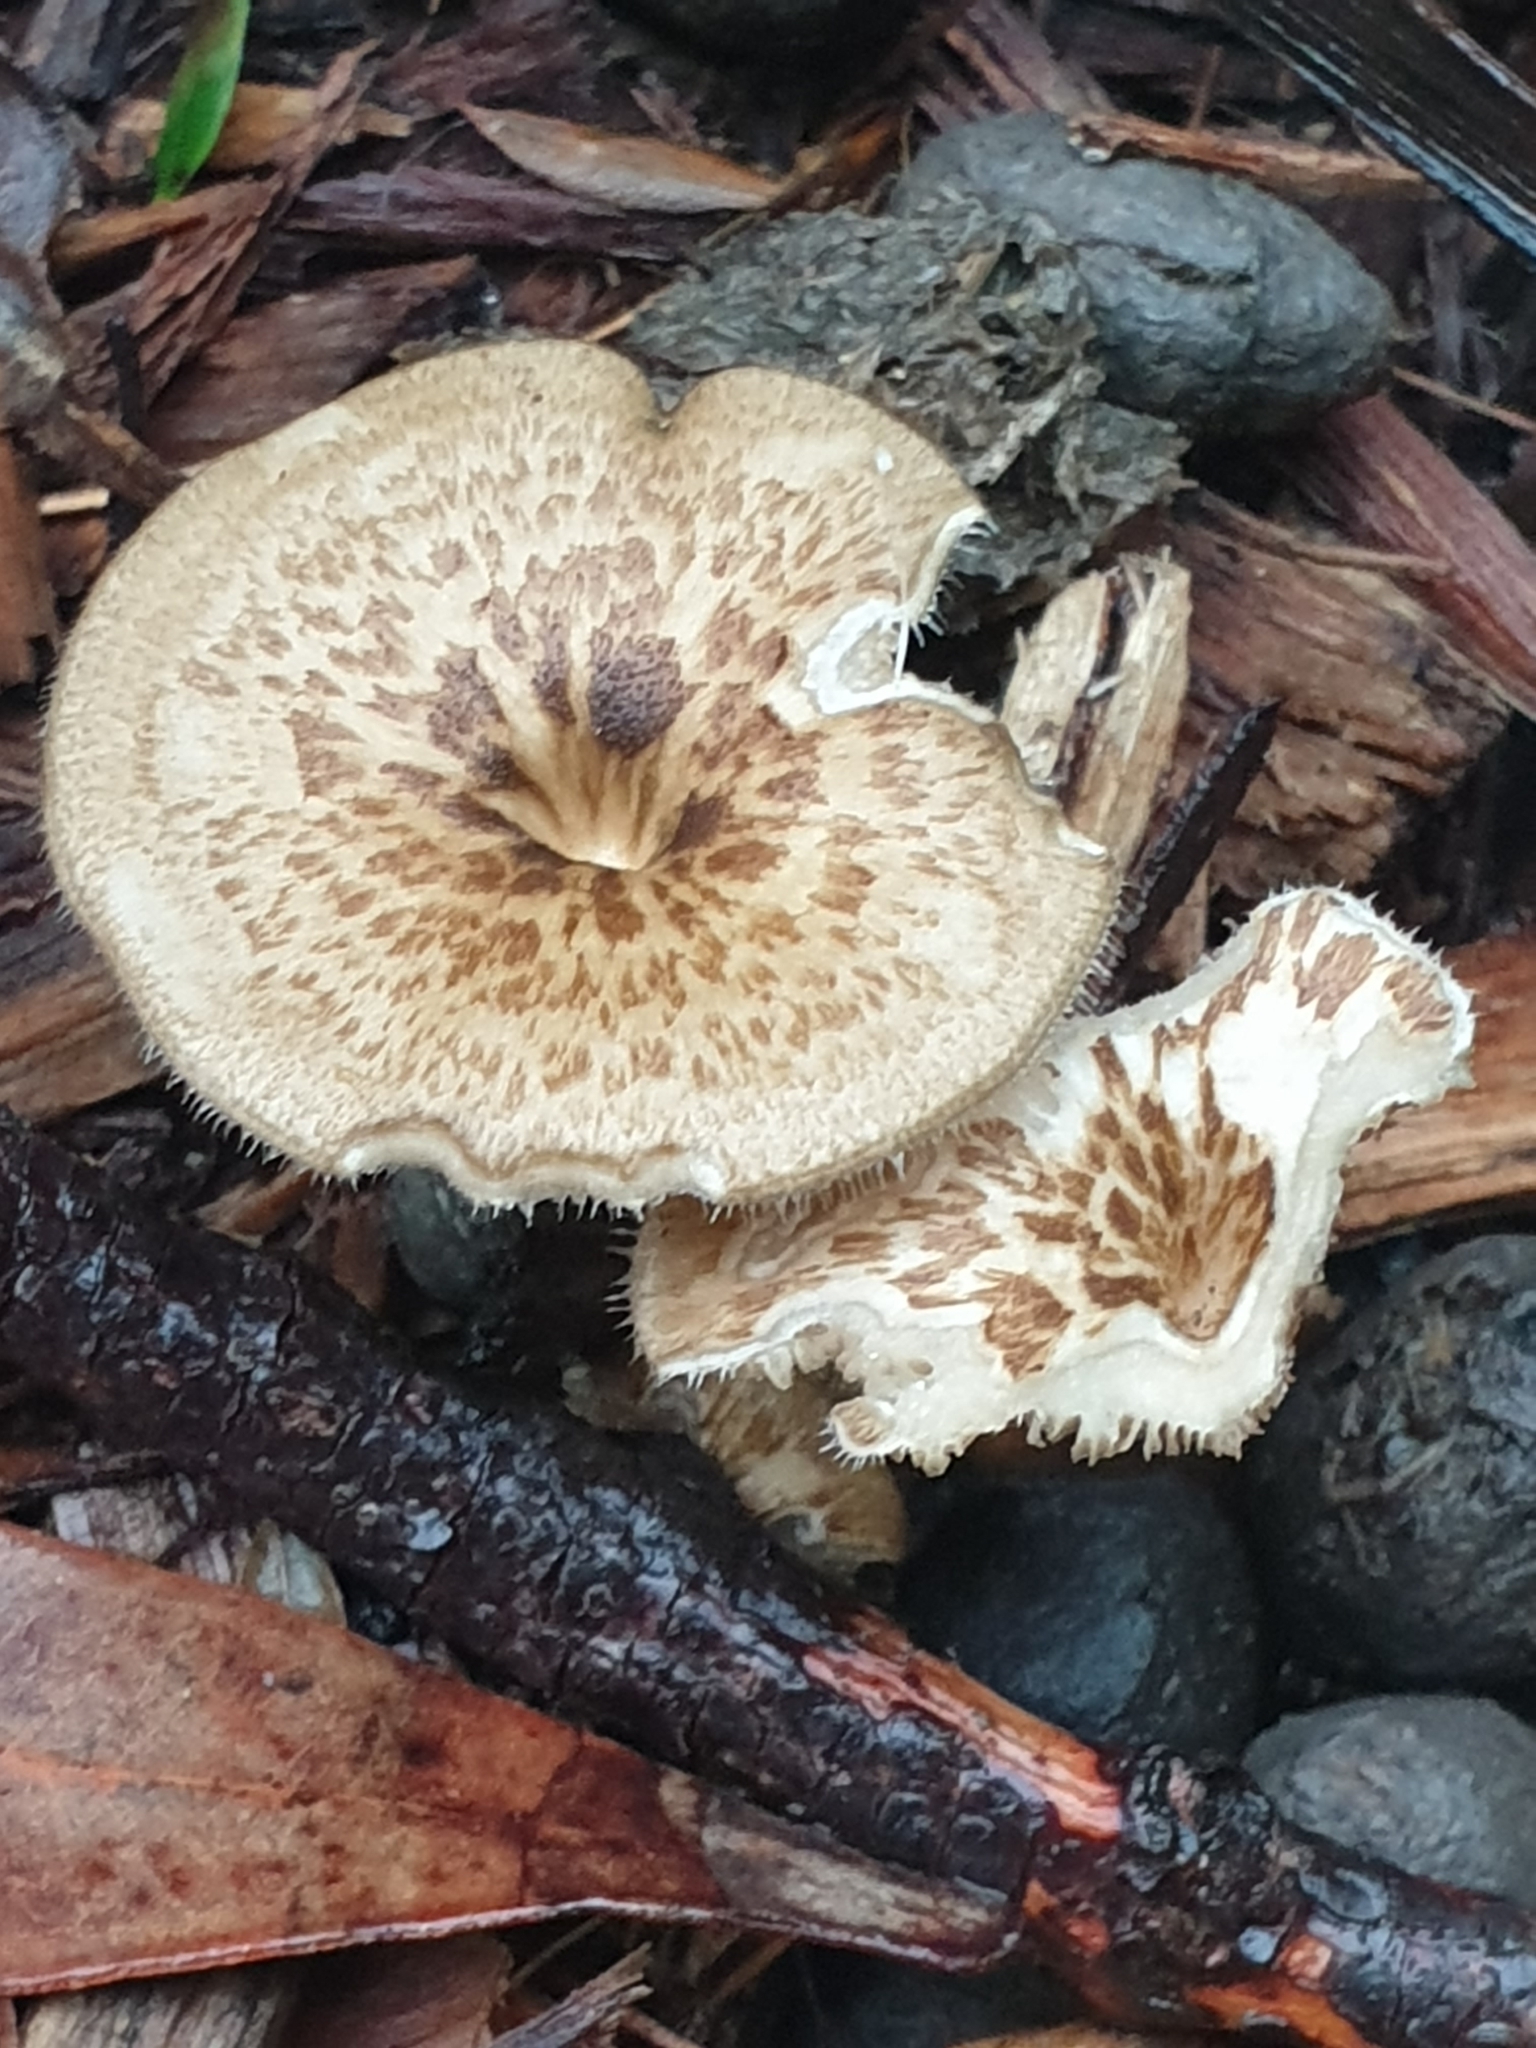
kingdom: Fungi
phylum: Basidiomycota
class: Agaricomycetes
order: Polyporales
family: Polyporaceae
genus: Lentinus
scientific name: Lentinus arcularius
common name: Spring polypore
